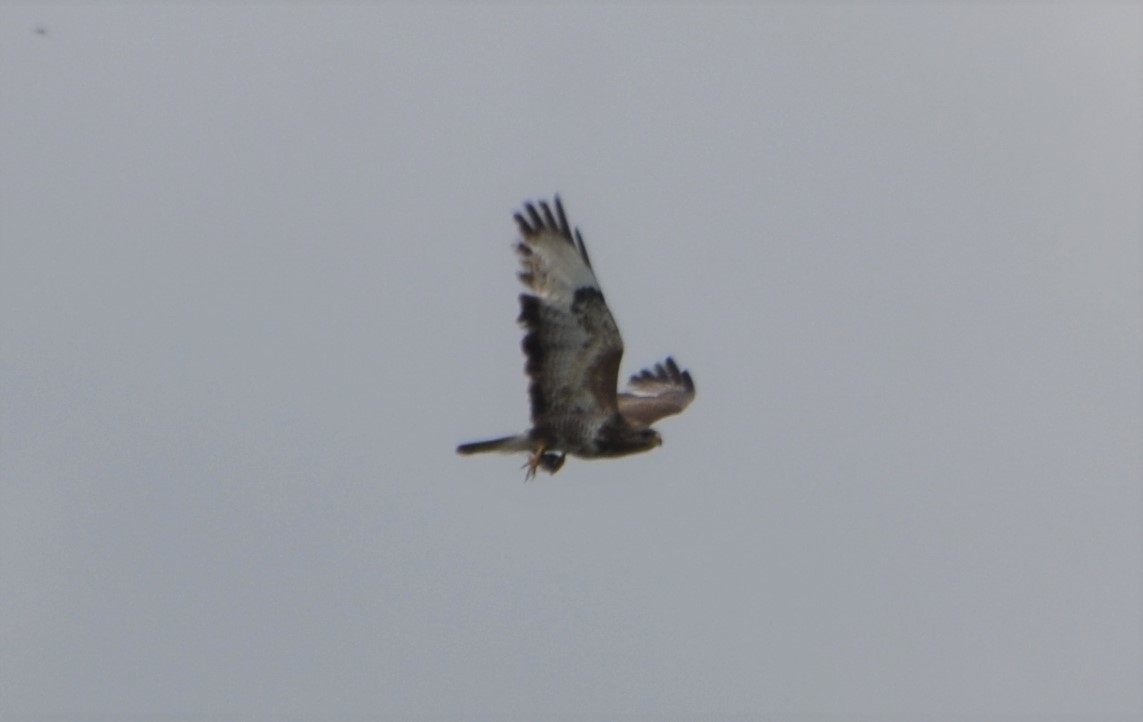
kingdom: Animalia
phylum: Chordata
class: Aves
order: Accipitriformes
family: Accipitridae
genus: Buteo
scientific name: Buteo buteo
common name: Common buzzard
